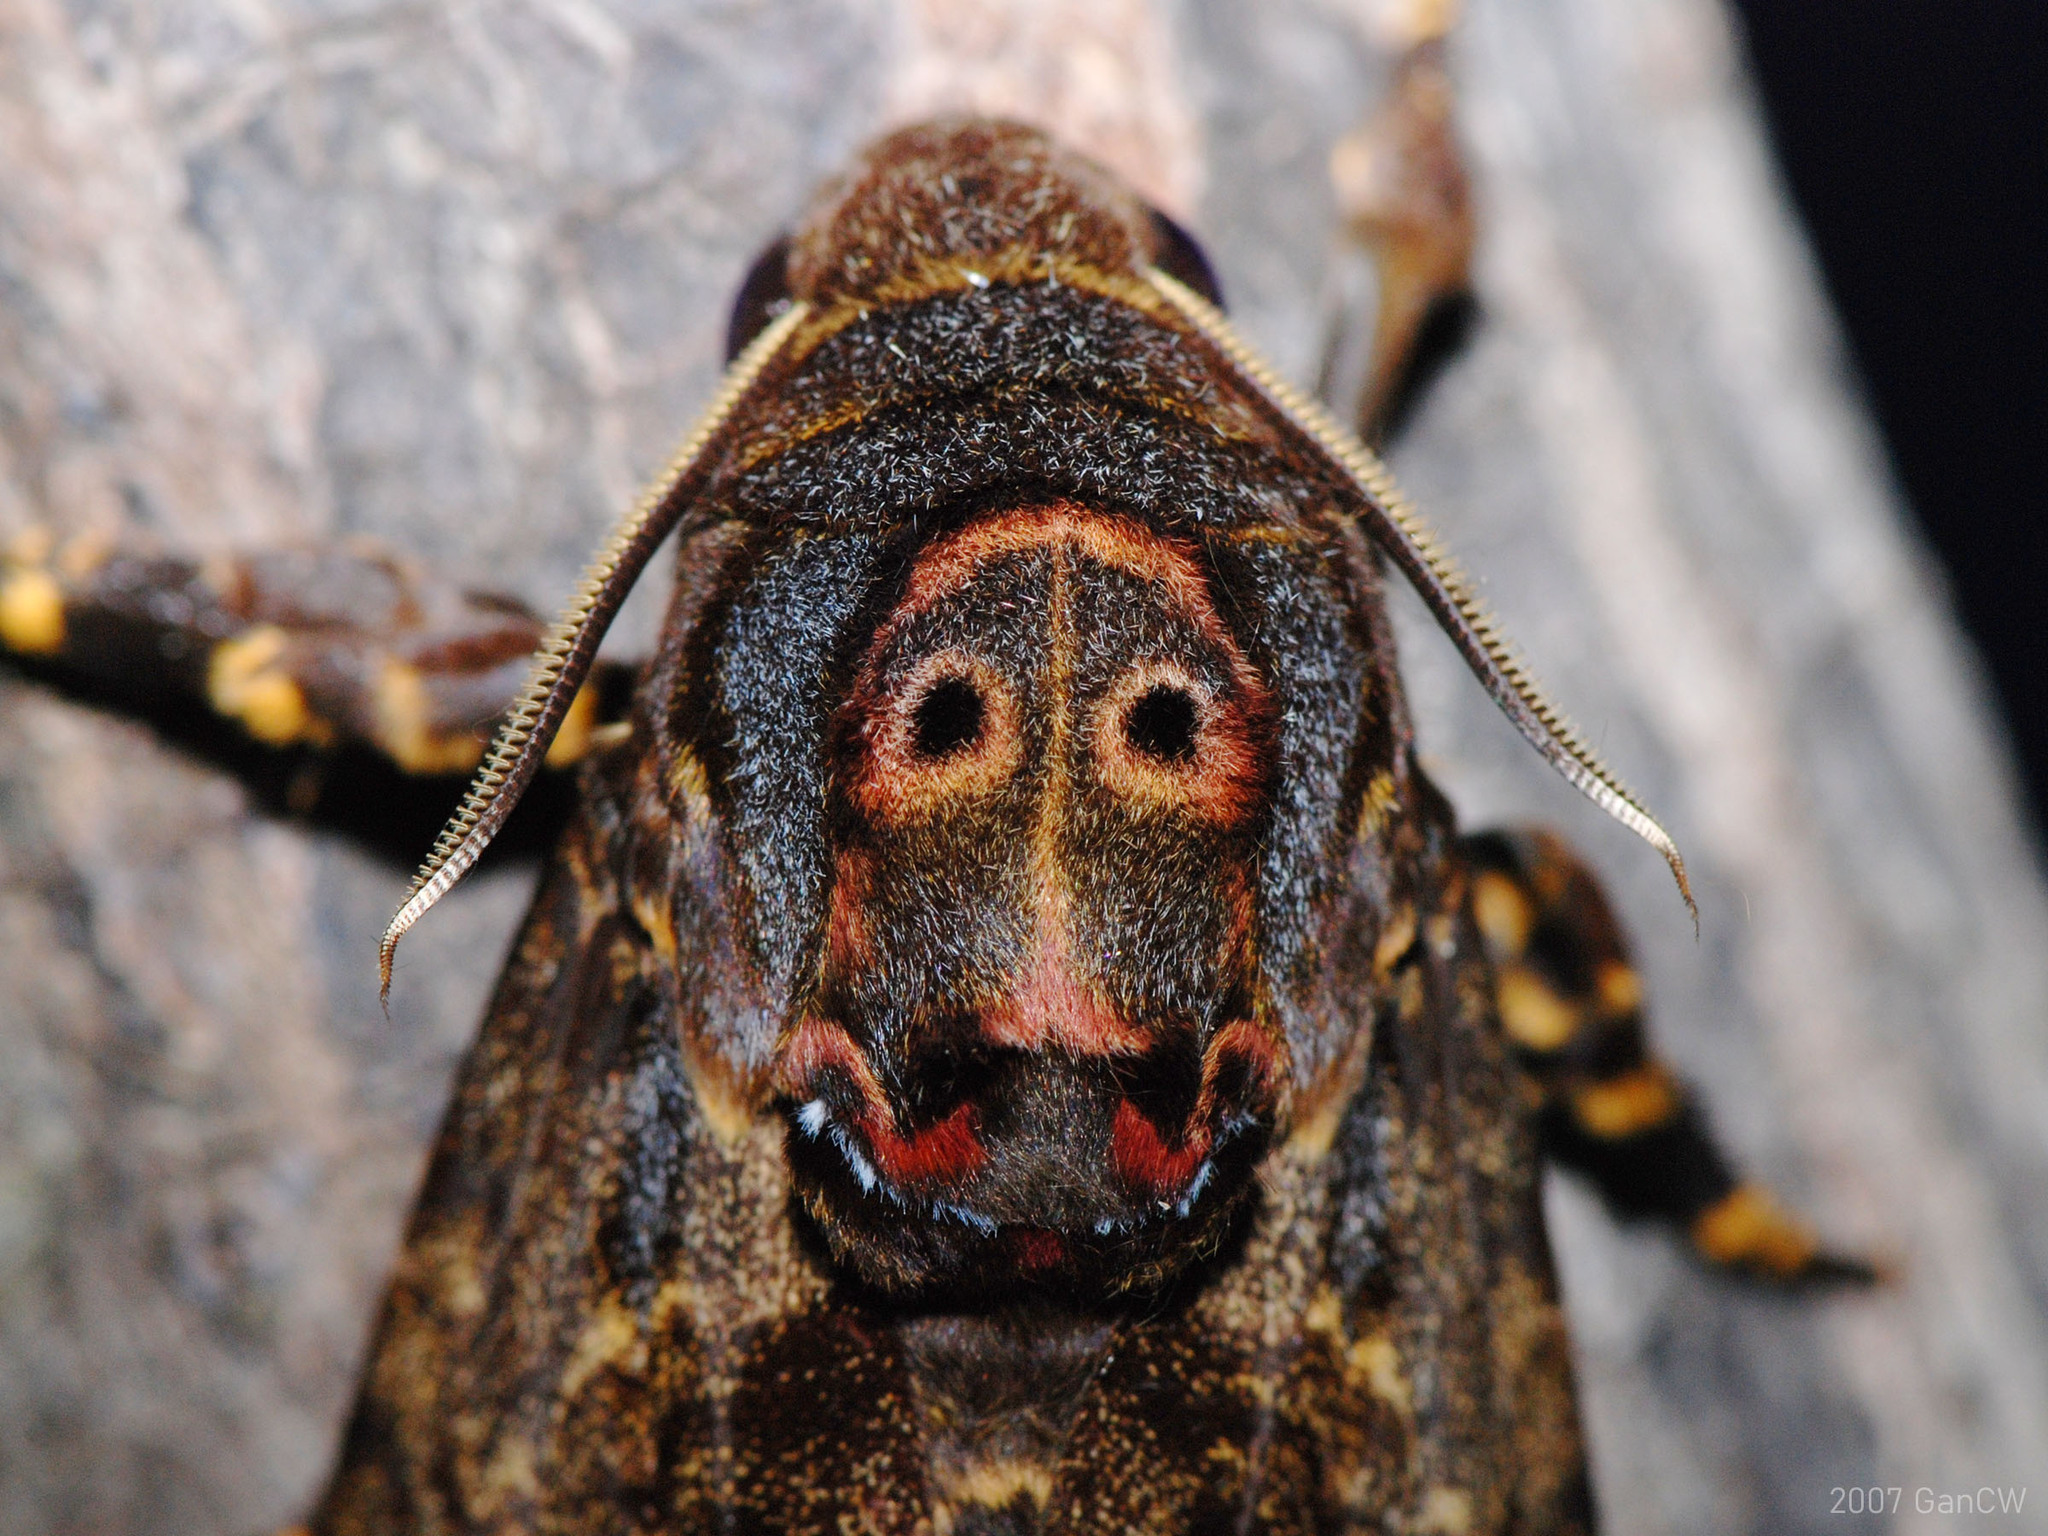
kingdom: Animalia
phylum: Arthropoda
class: Insecta
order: Lepidoptera
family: Sphingidae
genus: Acherontia
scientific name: Acherontia lachesis
